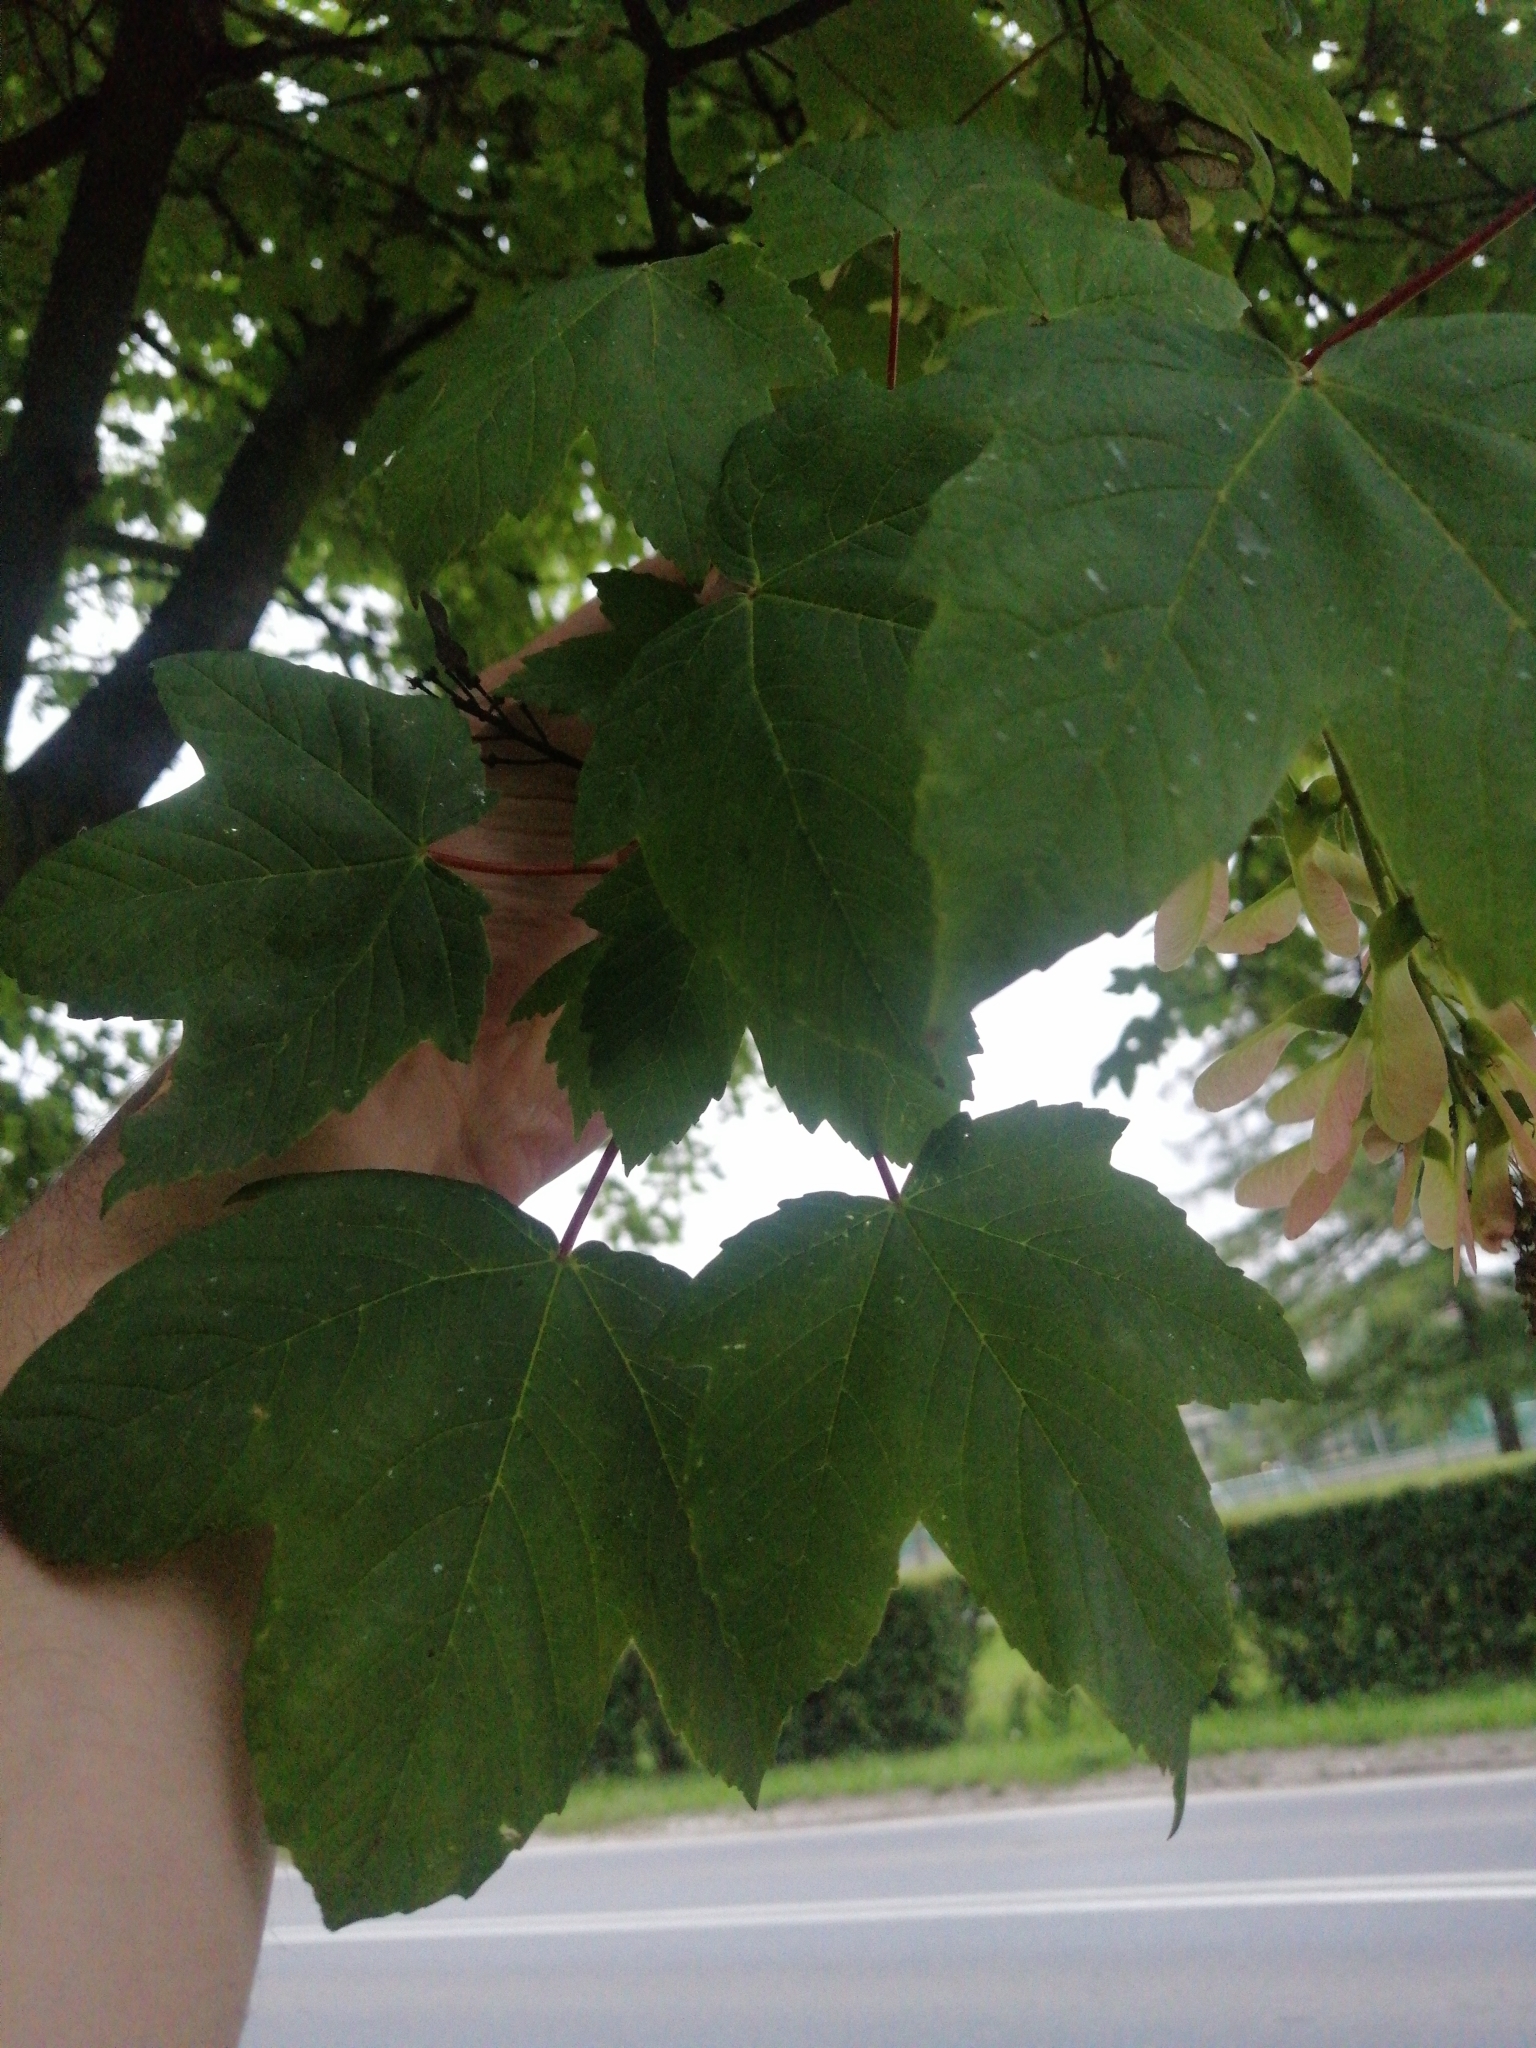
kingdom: Plantae
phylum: Tracheophyta
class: Magnoliopsida
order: Sapindales
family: Sapindaceae
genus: Acer
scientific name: Acer pseudoplatanus
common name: Sycamore
